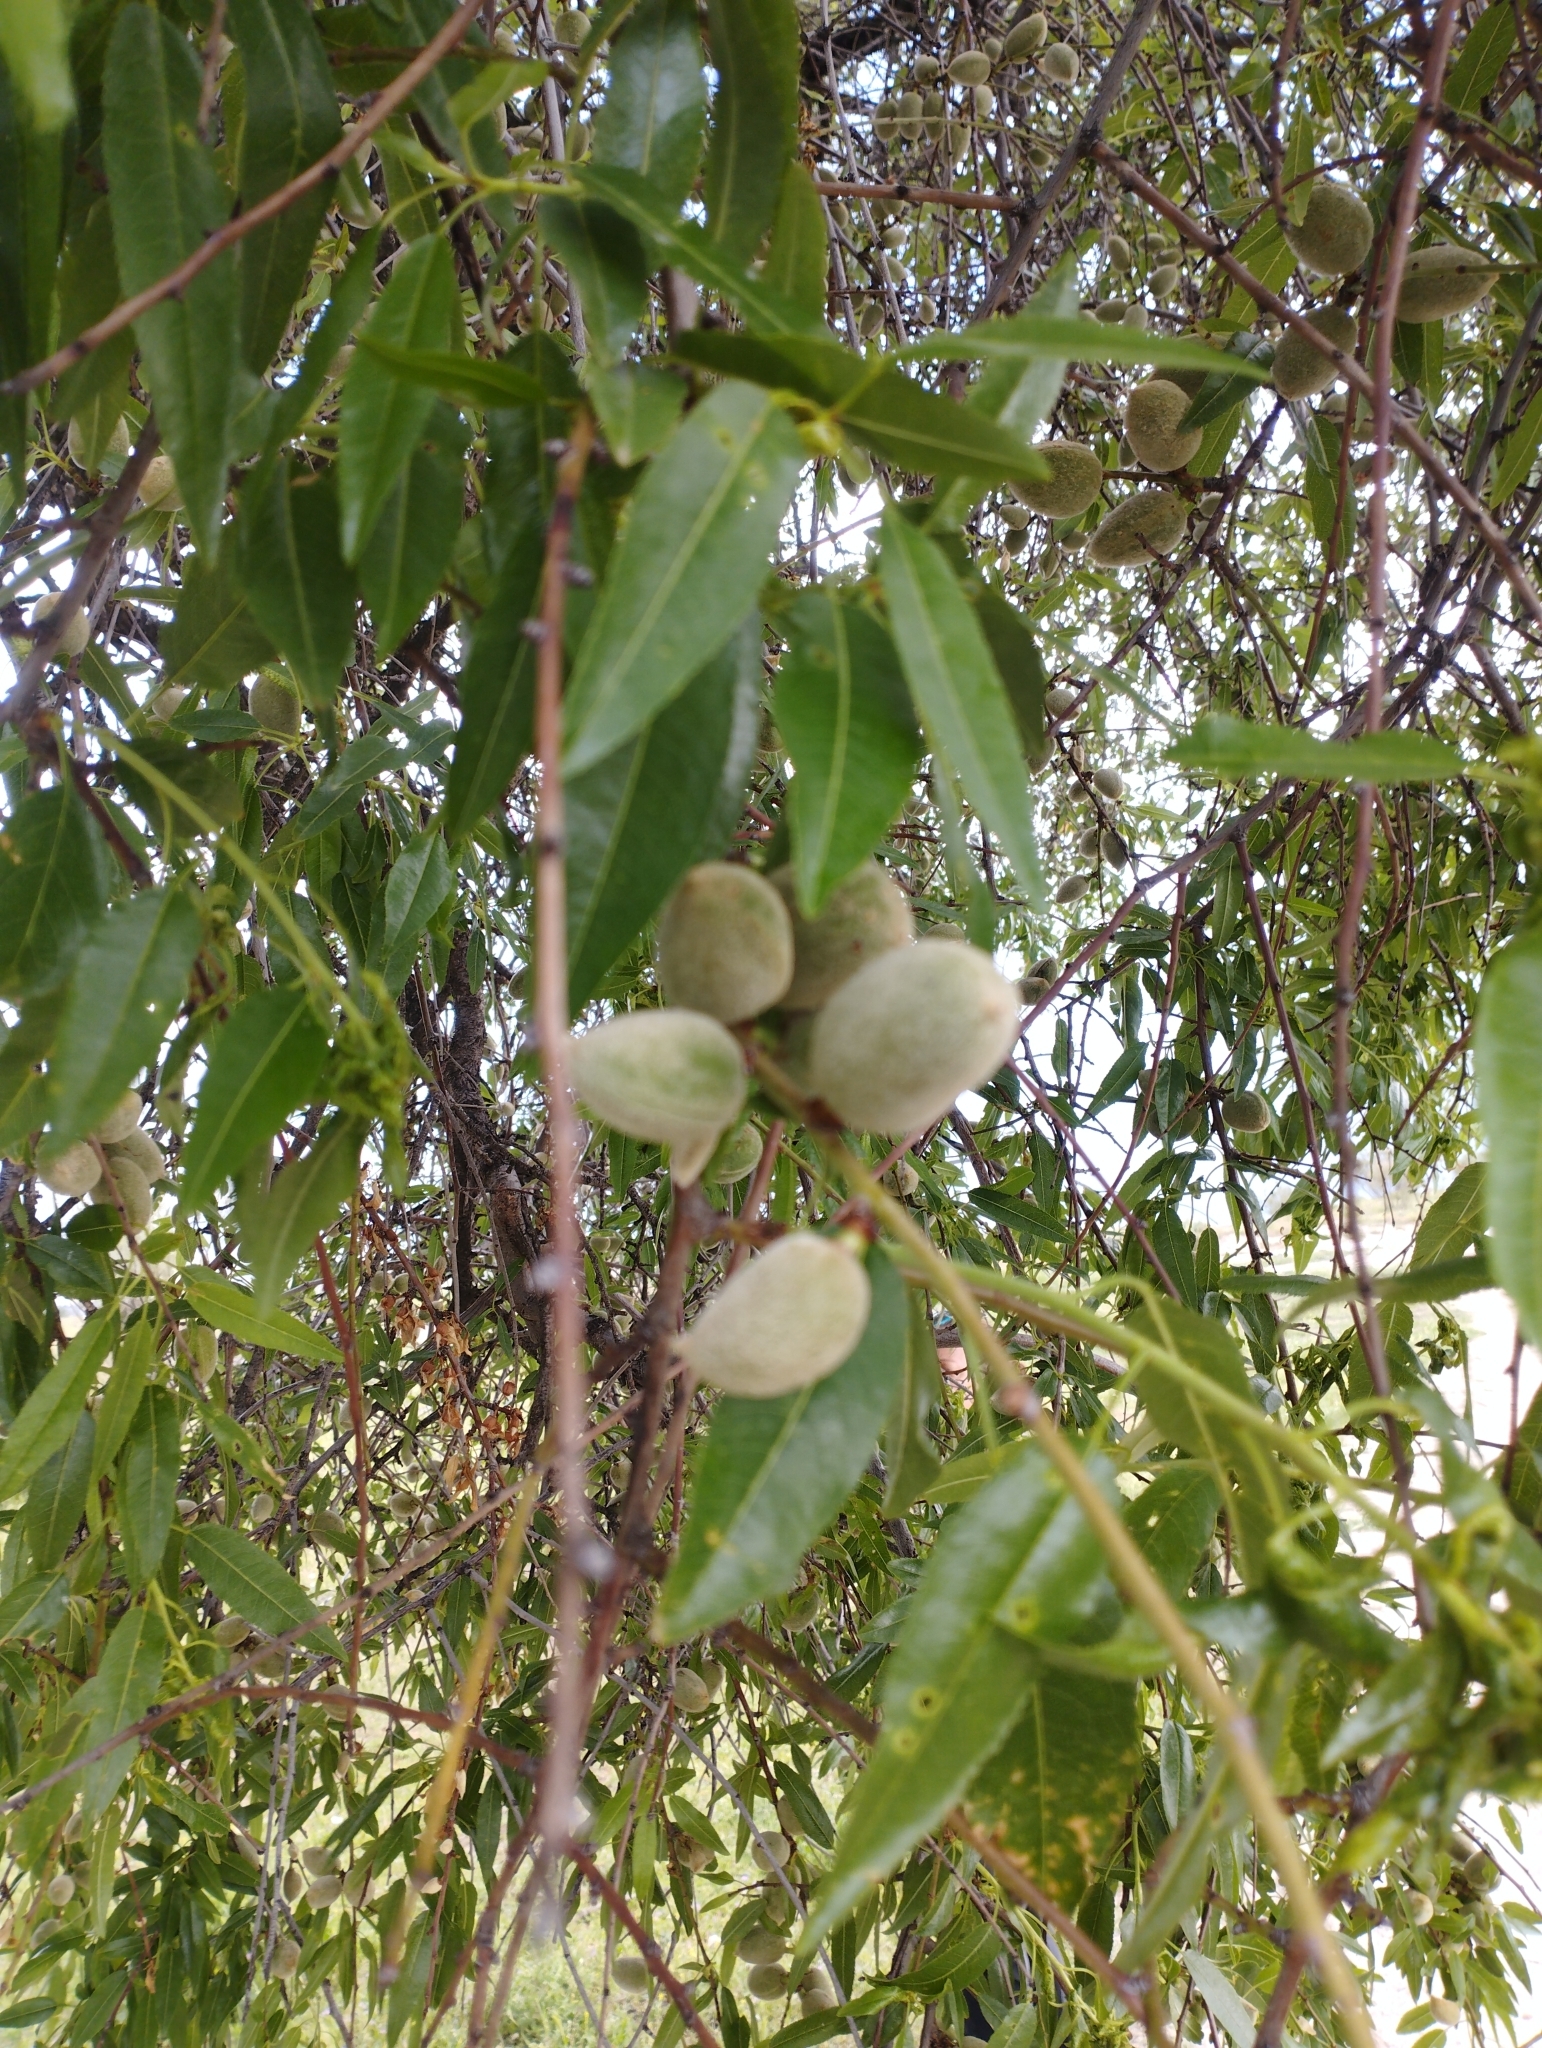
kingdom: Plantae
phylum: Tracheophyta
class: Magnoliopsida
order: Rosales
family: Rosaceae
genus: Prunus
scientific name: Prunus amygdalus
